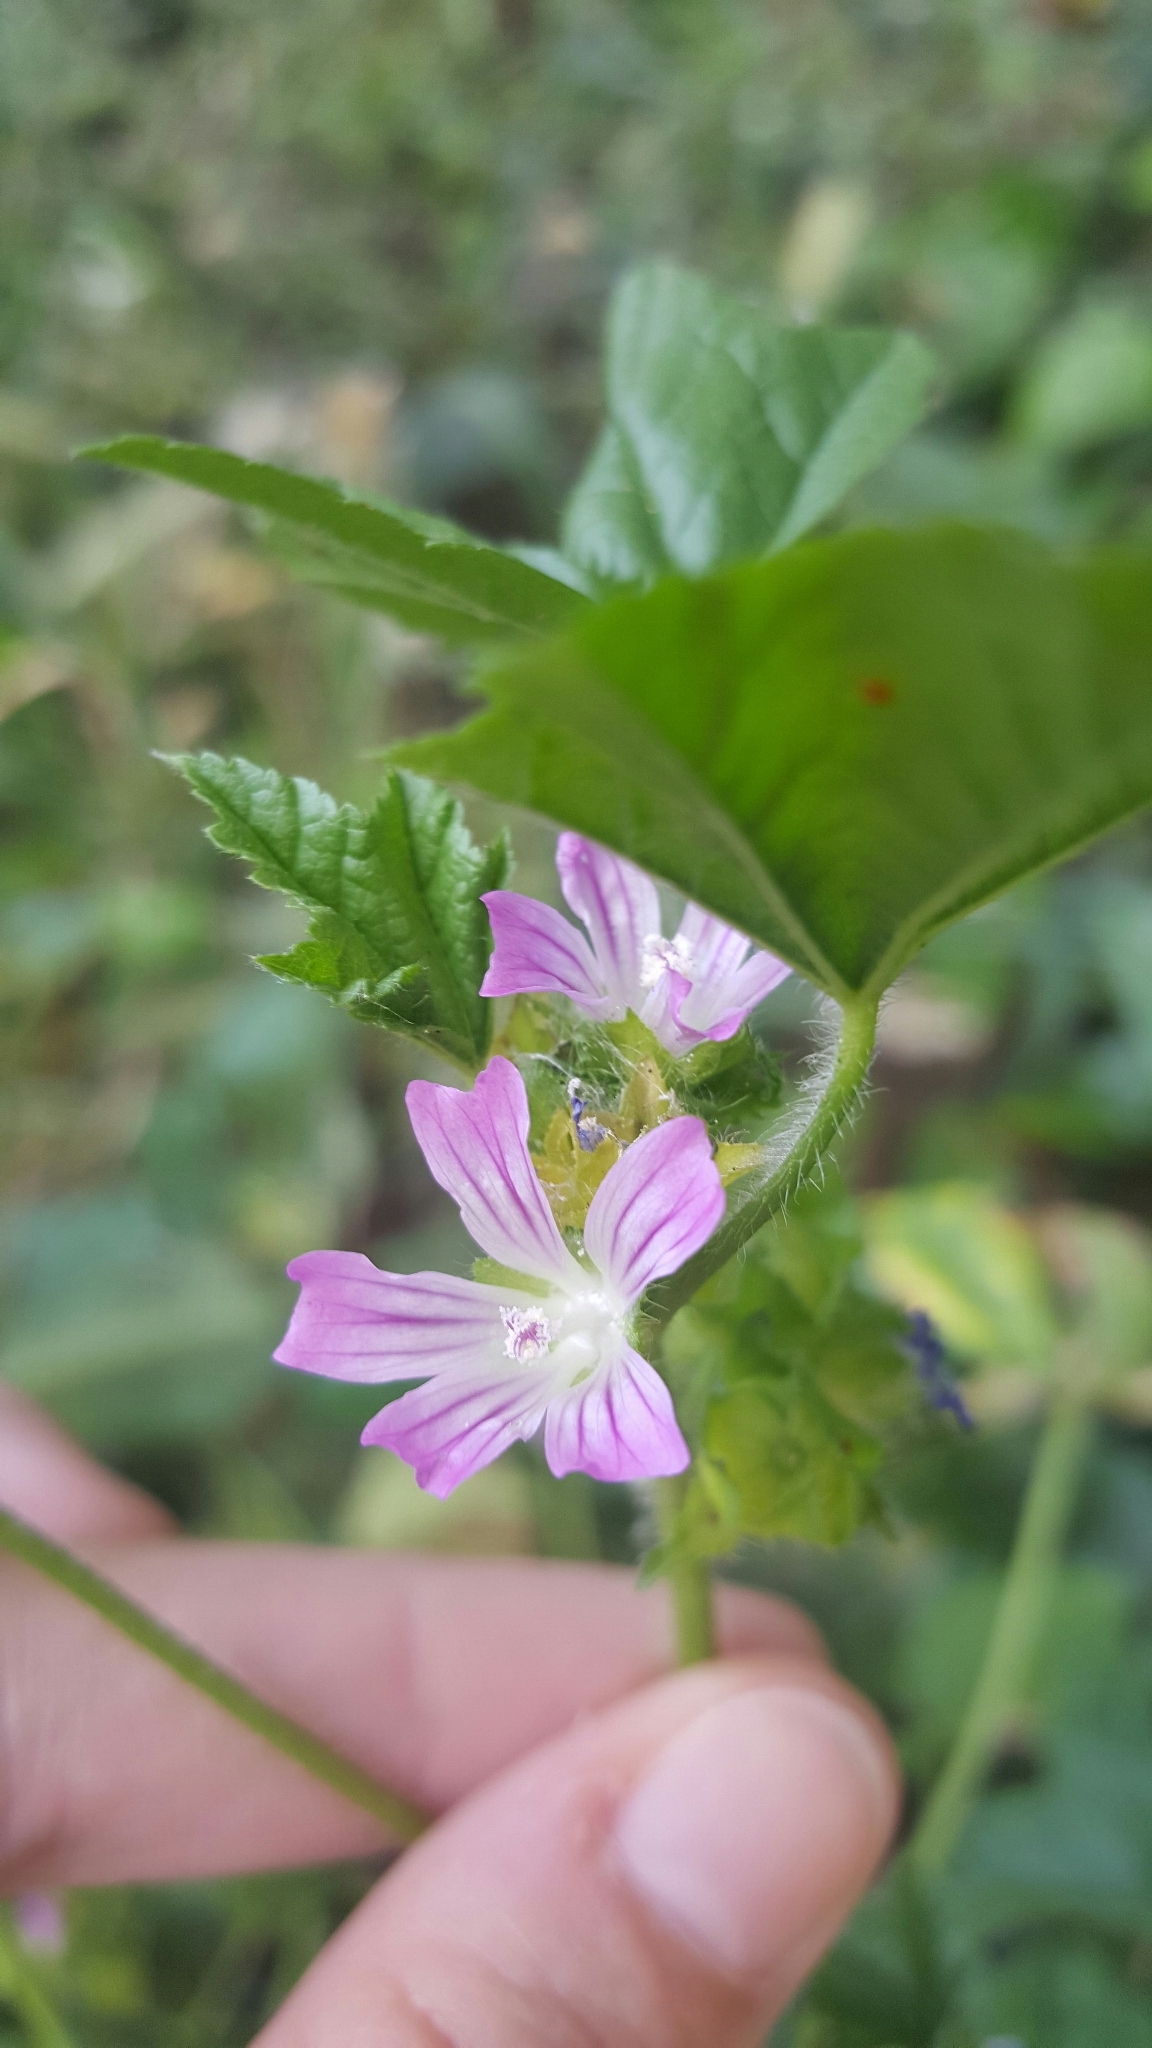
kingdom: Plantae
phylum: Tracheophyta
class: Magnoliopsida
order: Malvales
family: Malvaceae
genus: Malva
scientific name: Malva nicaeensis
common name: French mallow
